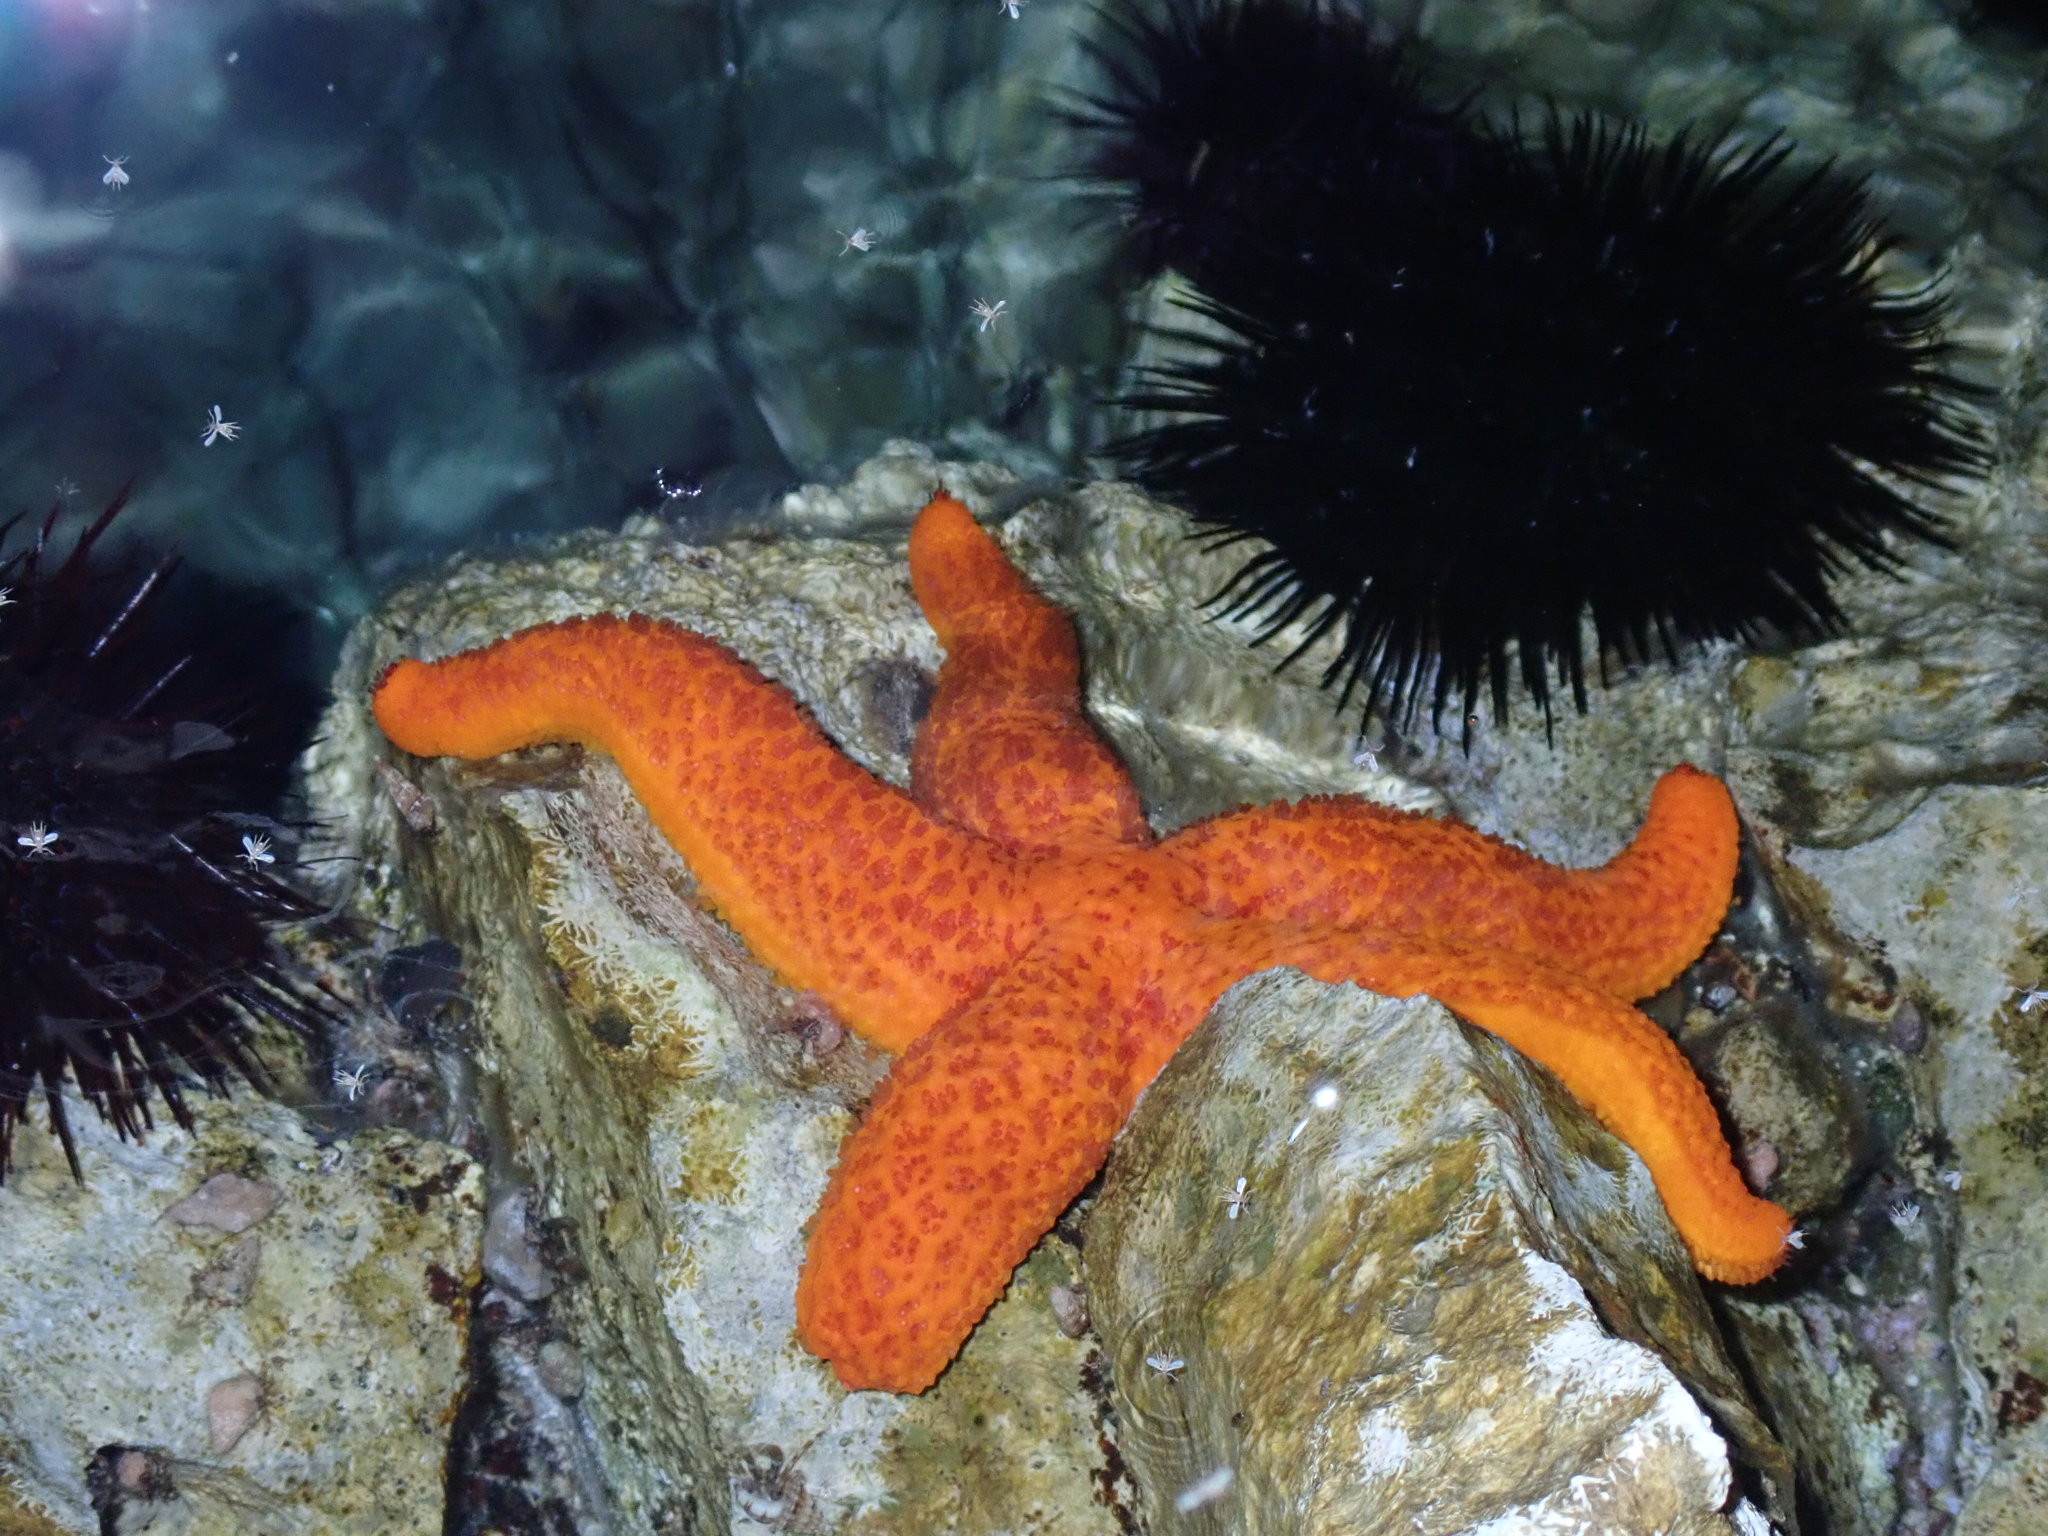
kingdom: Animalia
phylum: Echinodermata
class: Asteroidea
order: Spinulosida
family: Echinasteridae
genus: Echinaster
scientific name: Echinaster sepositus
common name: Red starfish
